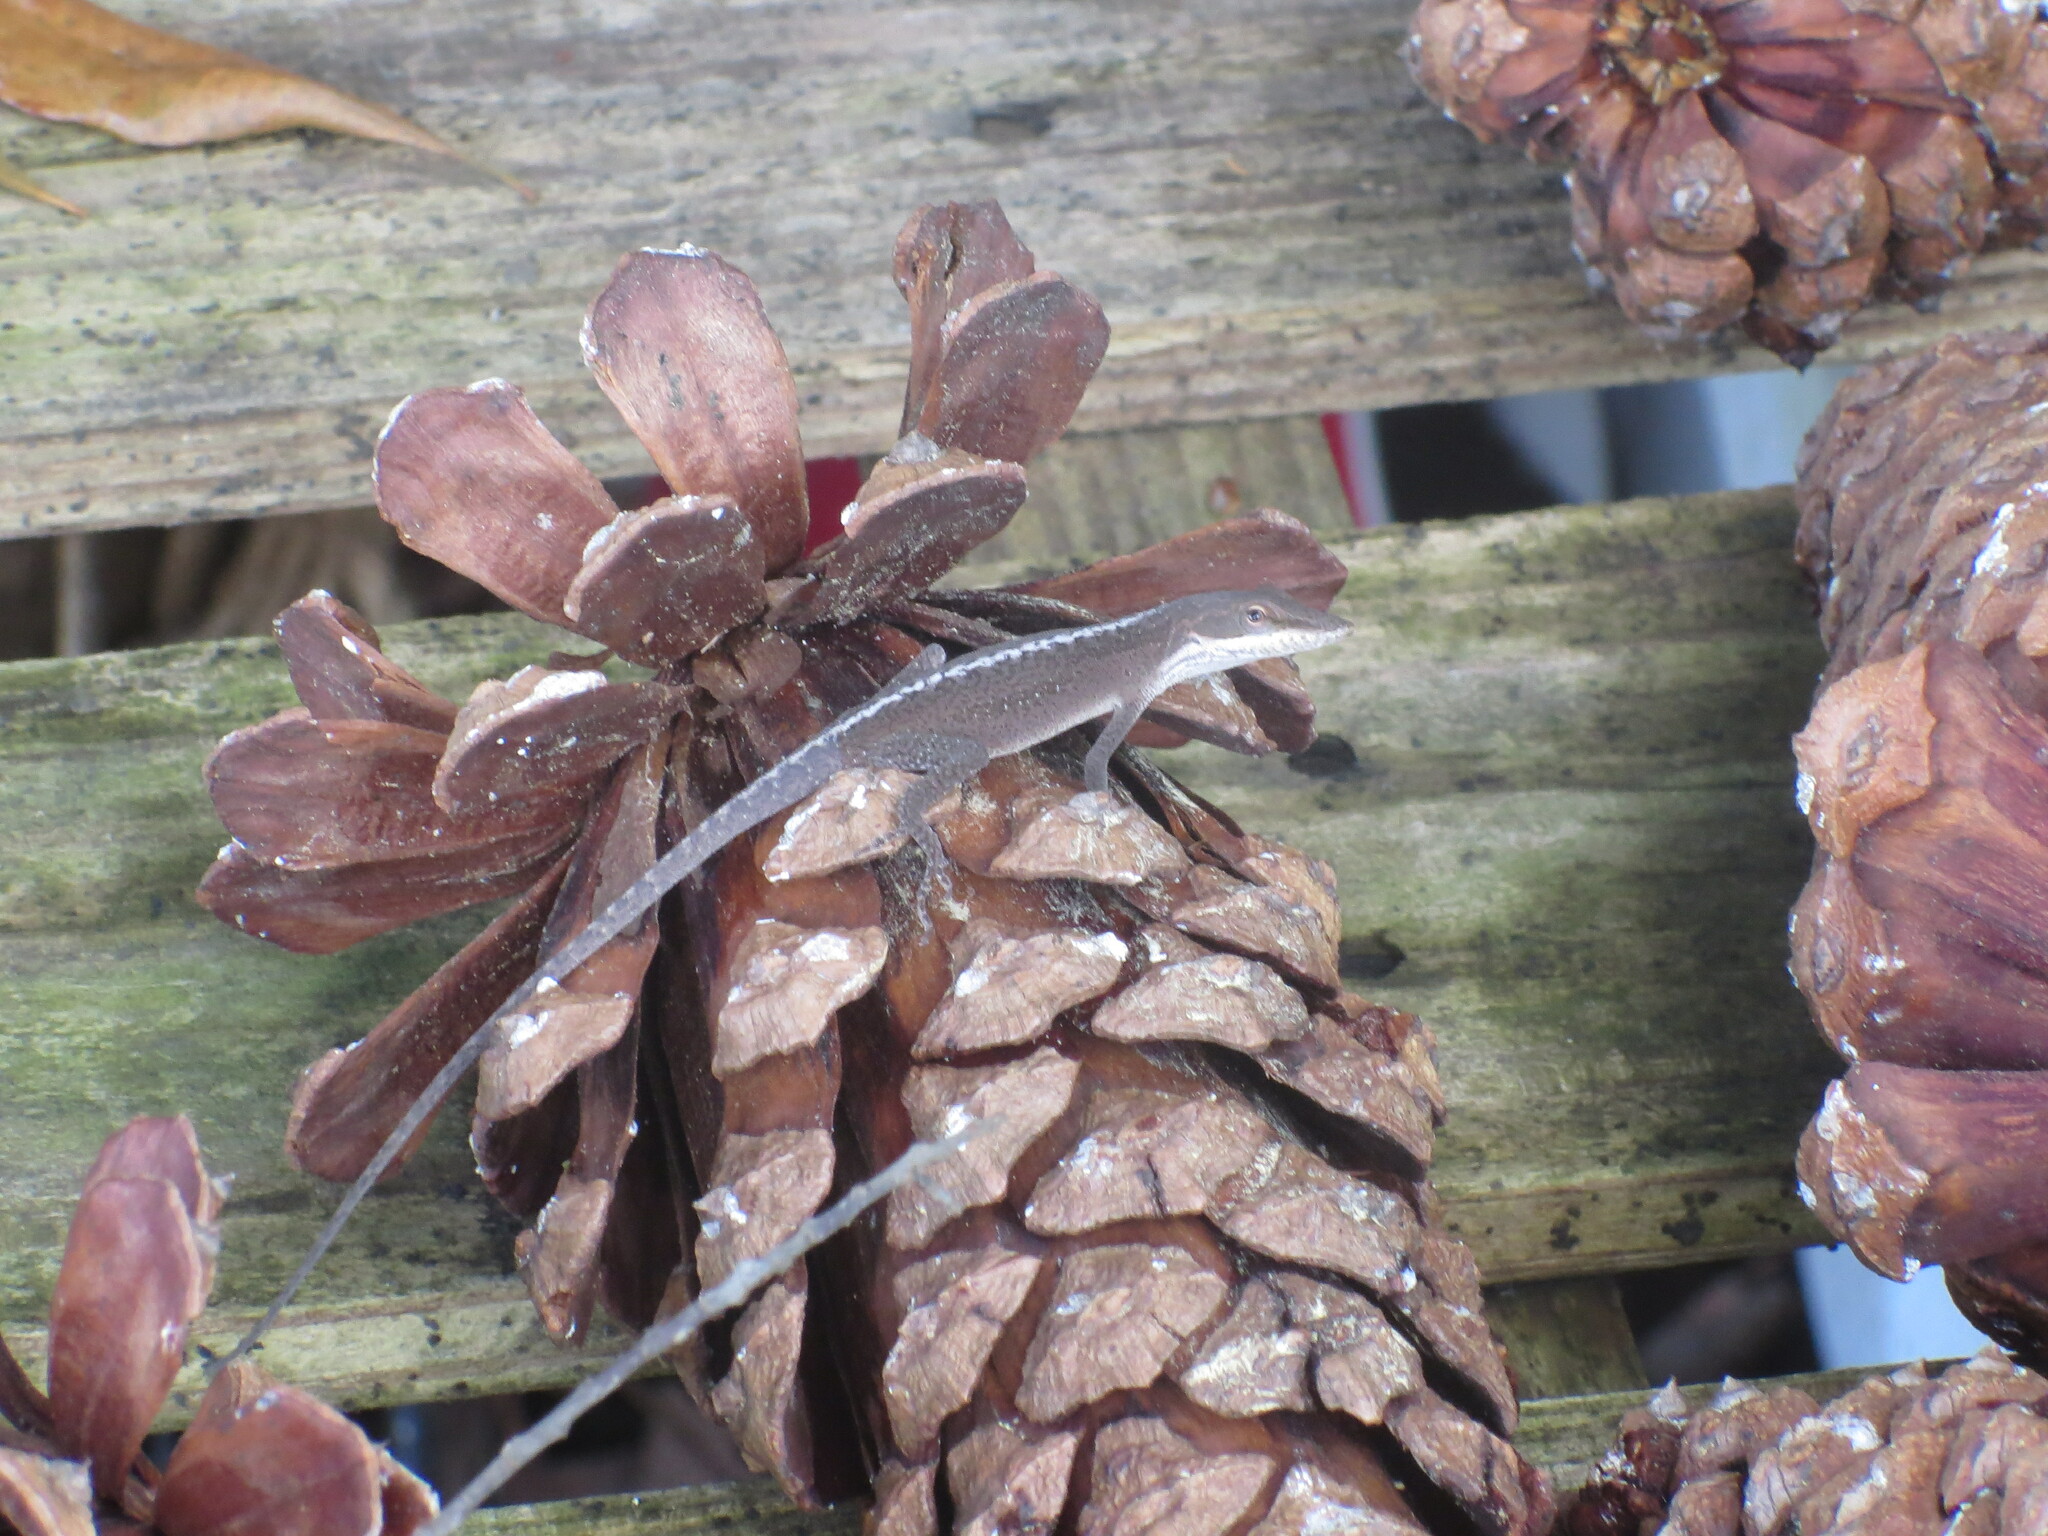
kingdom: Animalia
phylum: Chordata
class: Squamata
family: Dactyloidae
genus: Anolis
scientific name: Anolis carolinensis
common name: Green anole
